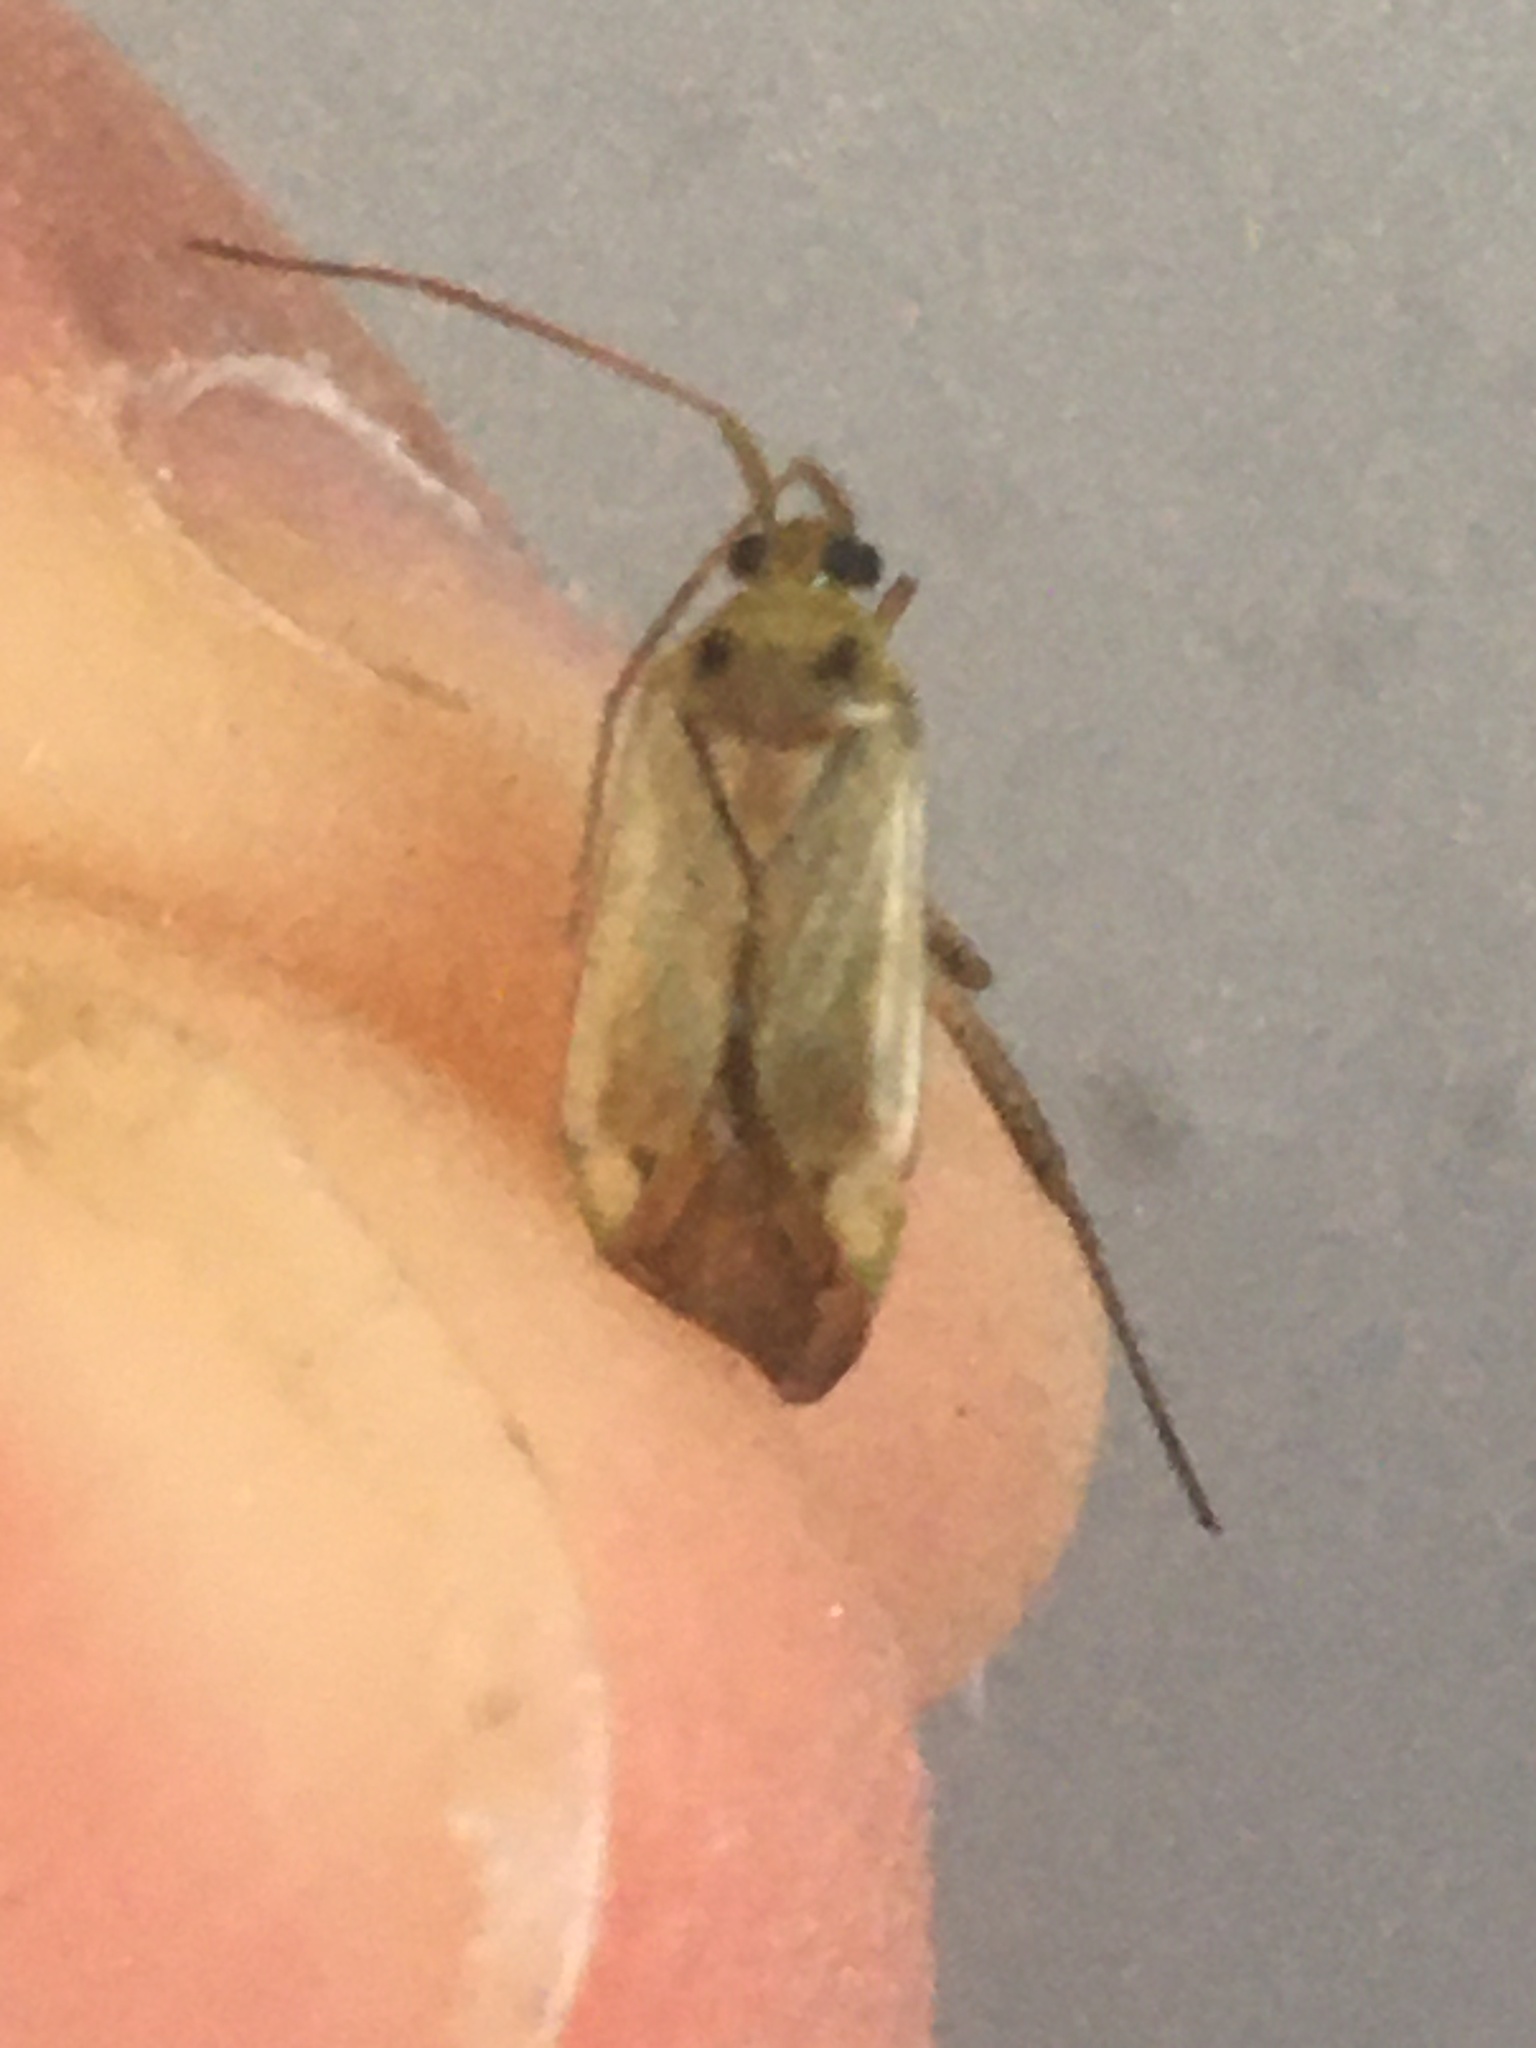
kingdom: Animalia
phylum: Arthropoda
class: Insecta
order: Hemiptera
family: Miridae
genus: Adelphocoris
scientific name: Adelphocoris lineolatus
